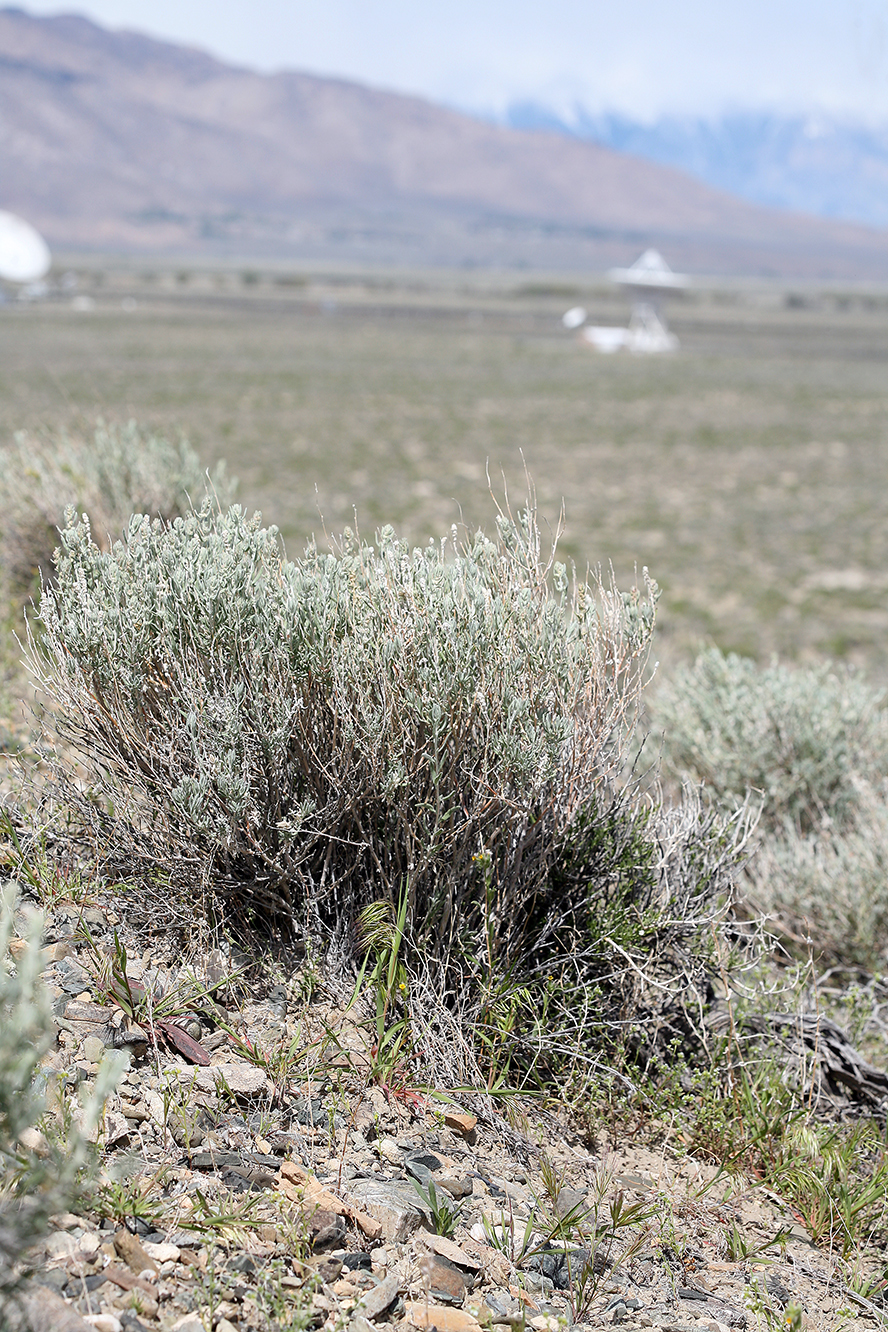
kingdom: Plantae
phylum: Tracheophyta
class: Magnoliopsida
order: Caryophyllales
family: Amaranthaceae
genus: Krascheninnikovia
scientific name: Krascheninnikovia lanata
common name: Winterfat
